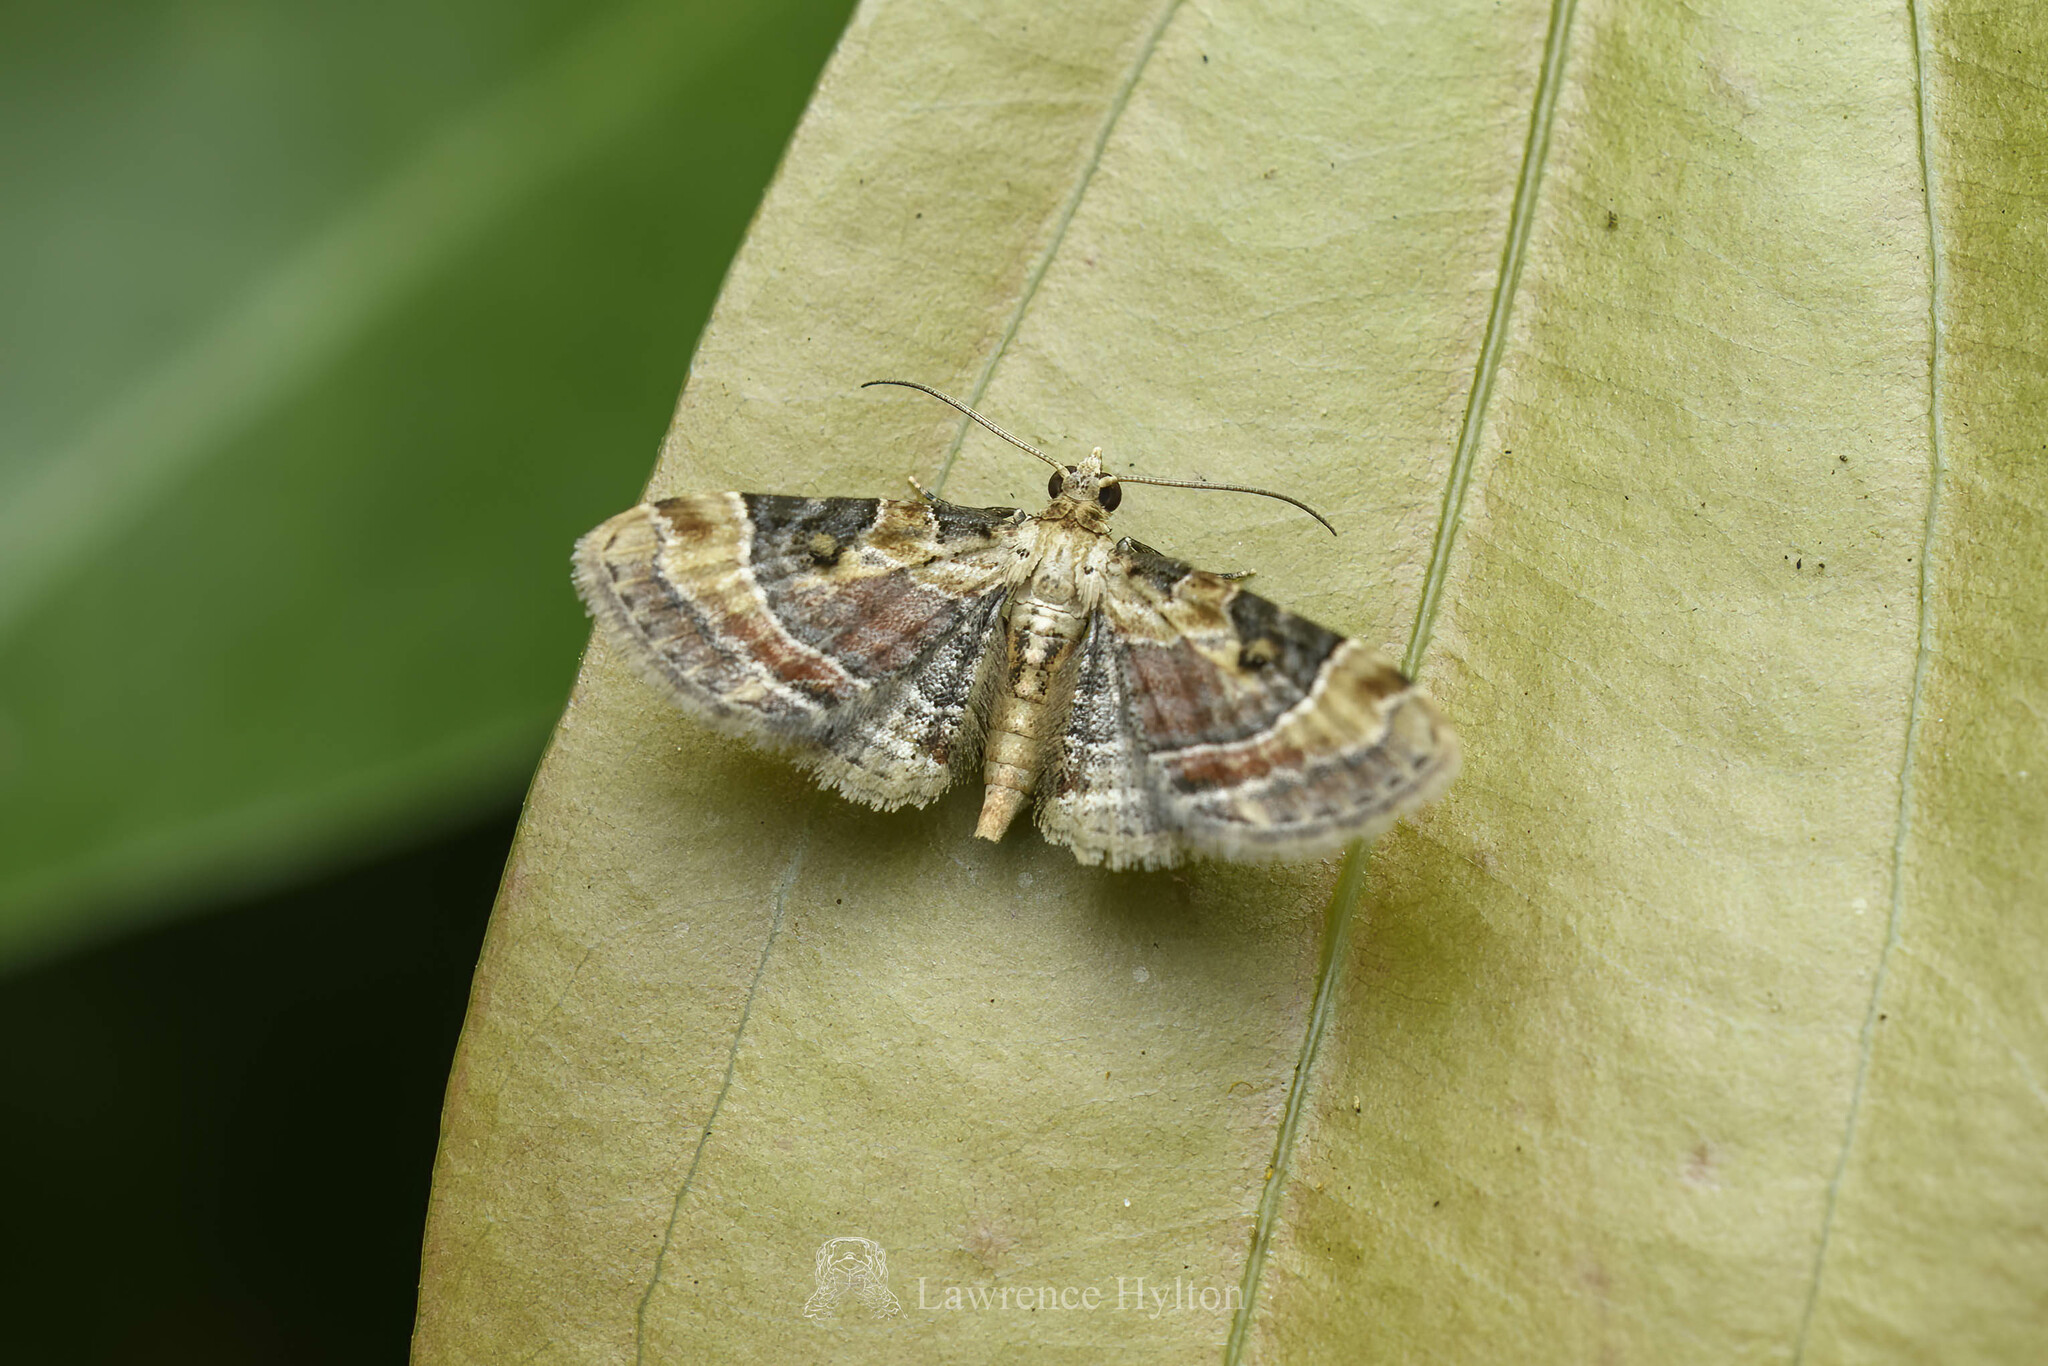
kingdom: Animalia
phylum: Arthropoda
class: Insecta
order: Lepidoptera
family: Geometridae
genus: Eupithecia
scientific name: Eupithecia melanolopha
